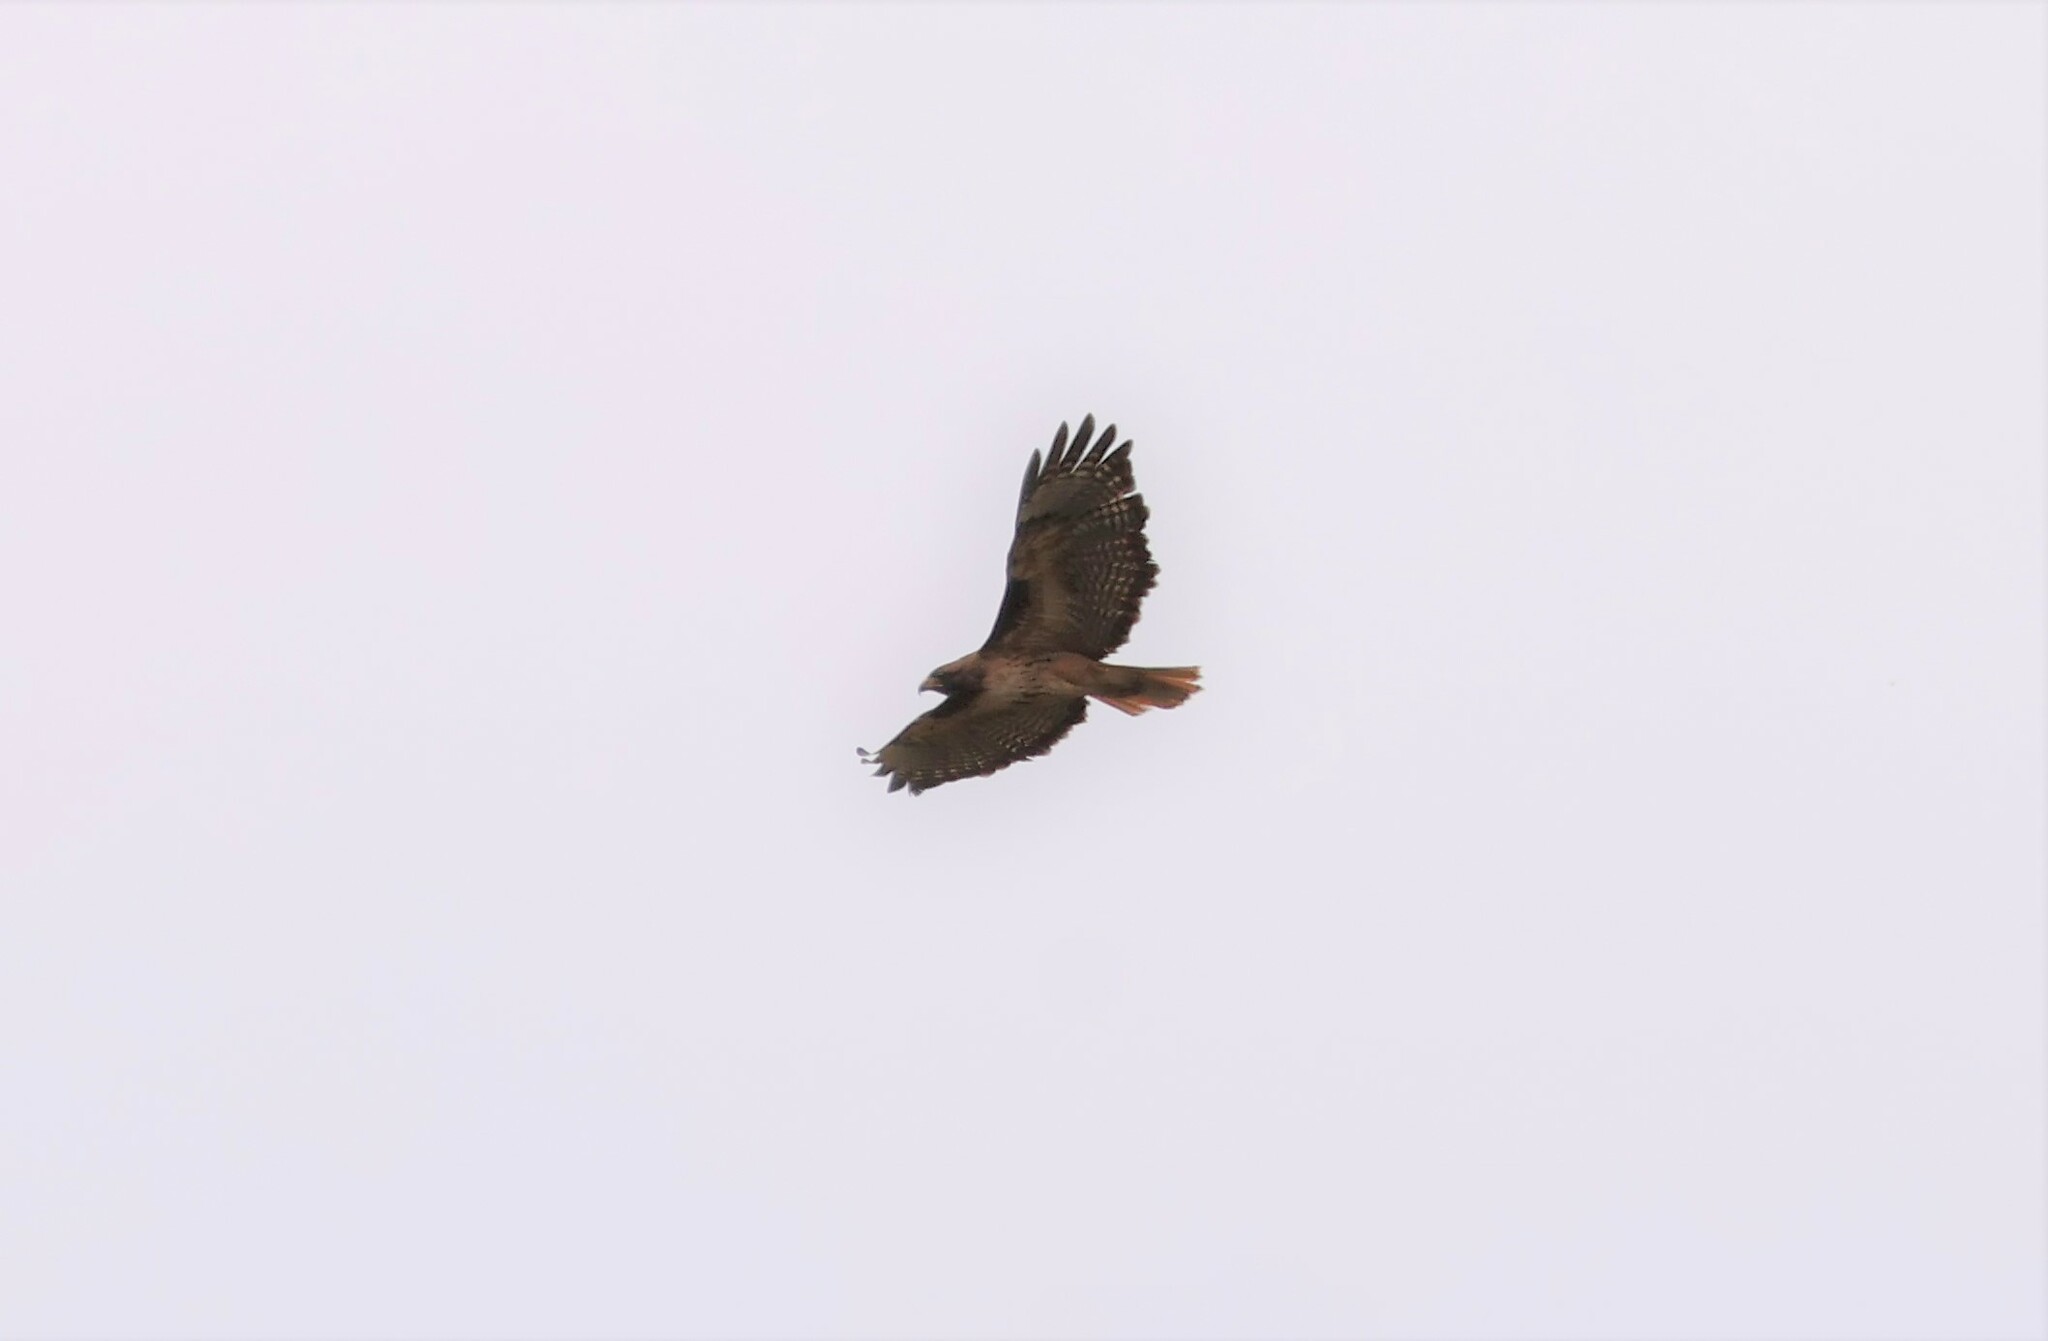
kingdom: Animalia
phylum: Chordata
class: Aves
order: Accipitriformes
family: Accipitridae
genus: Buteo
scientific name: Buteo jamaicensis
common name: Red-tailed hawk
